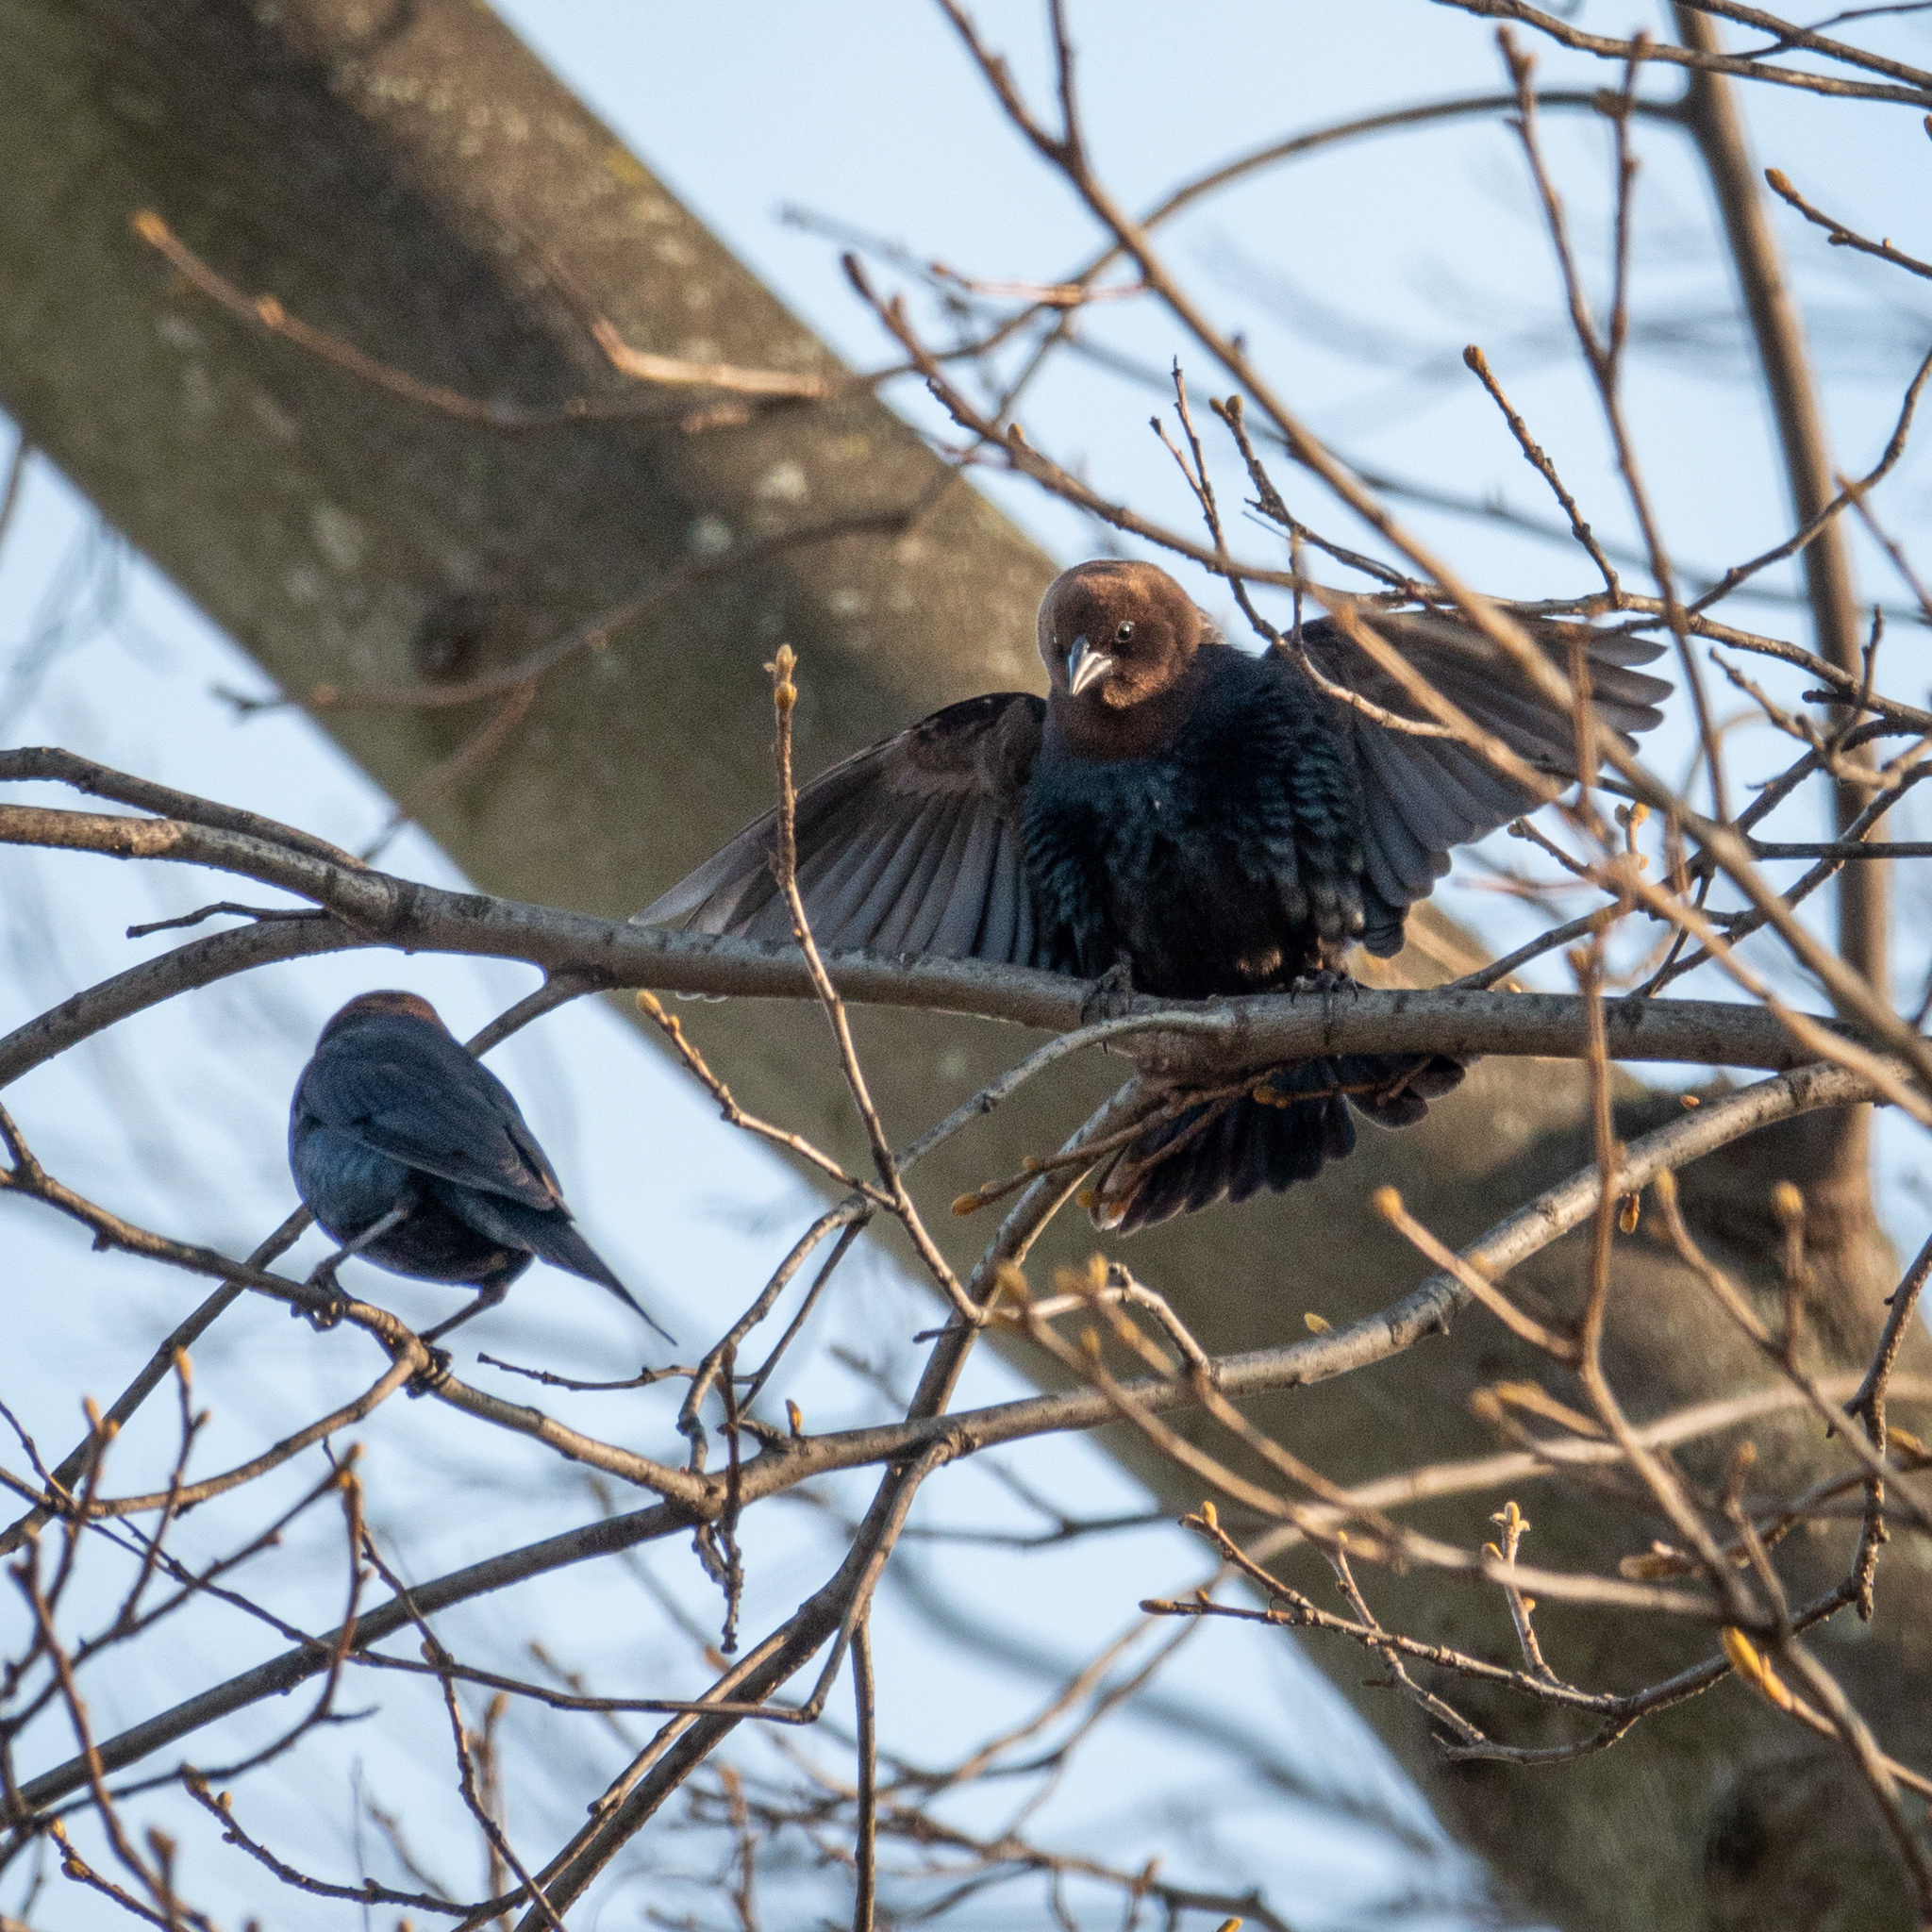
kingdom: Animalia
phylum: Chordata
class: Aves
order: Passeriformes
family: Icteridae
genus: Molothrus
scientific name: Molothrus ater
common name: Brown-headed cowbird
